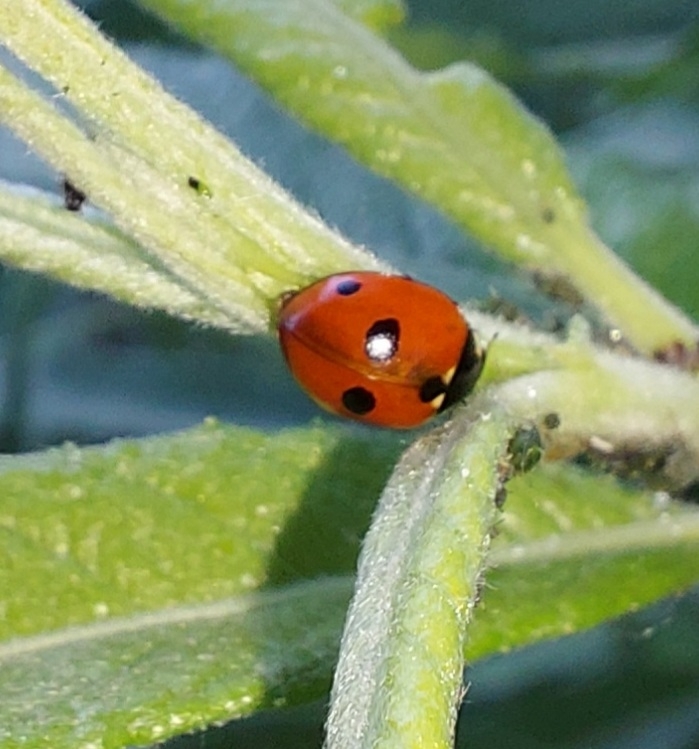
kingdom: Animalia
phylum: Arthropoda
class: Insecta
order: Coleoptera
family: Coccinellidae
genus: Coccinella
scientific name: Coccinella quinquepunctata
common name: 5-spot ladybird
